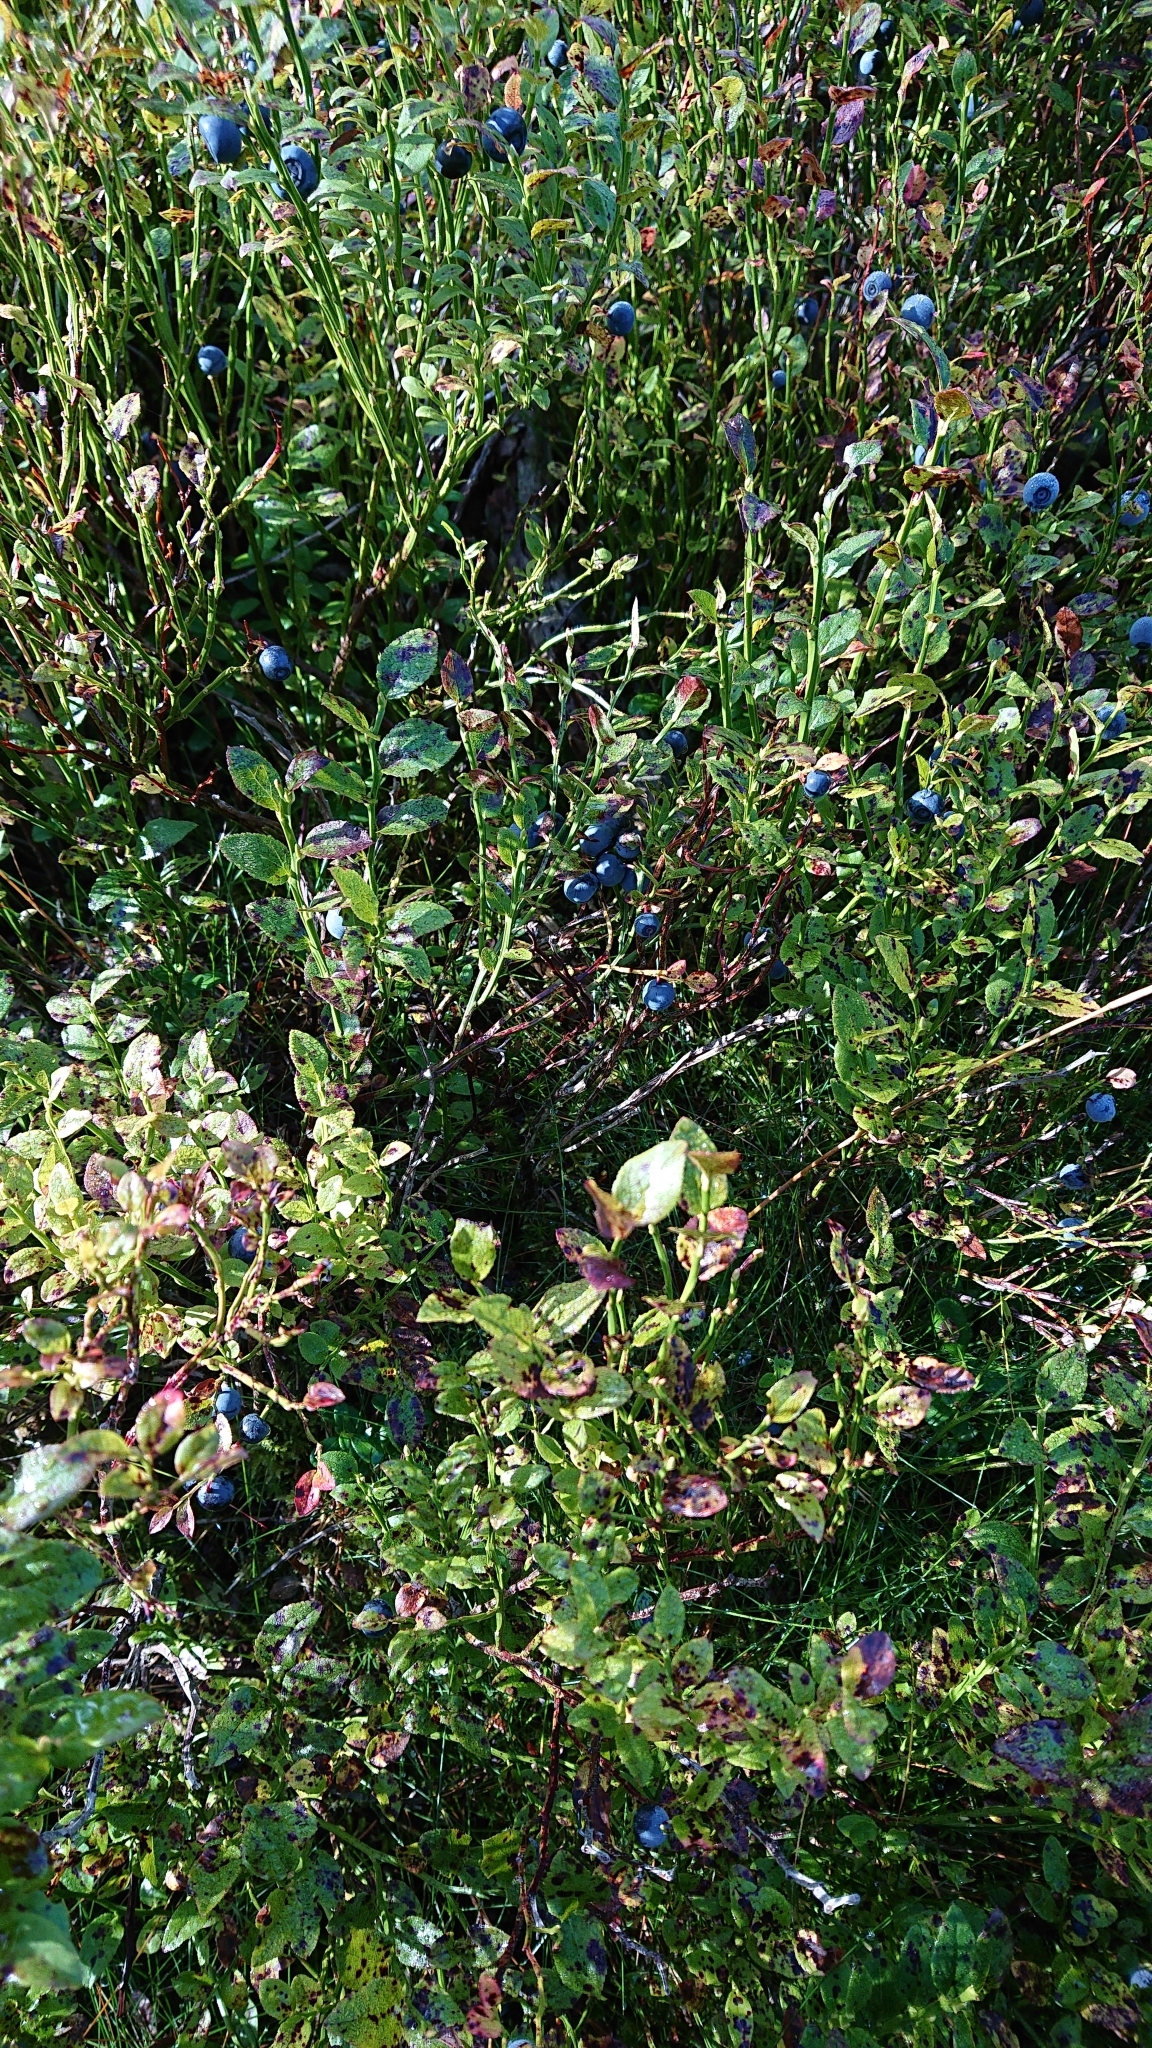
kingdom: Plantae
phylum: Tracheophyta
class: Magnoliopsida
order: Ericales
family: Ericaceae
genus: Vaccinium
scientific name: Vaccinium myrtillus
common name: Bilberry
